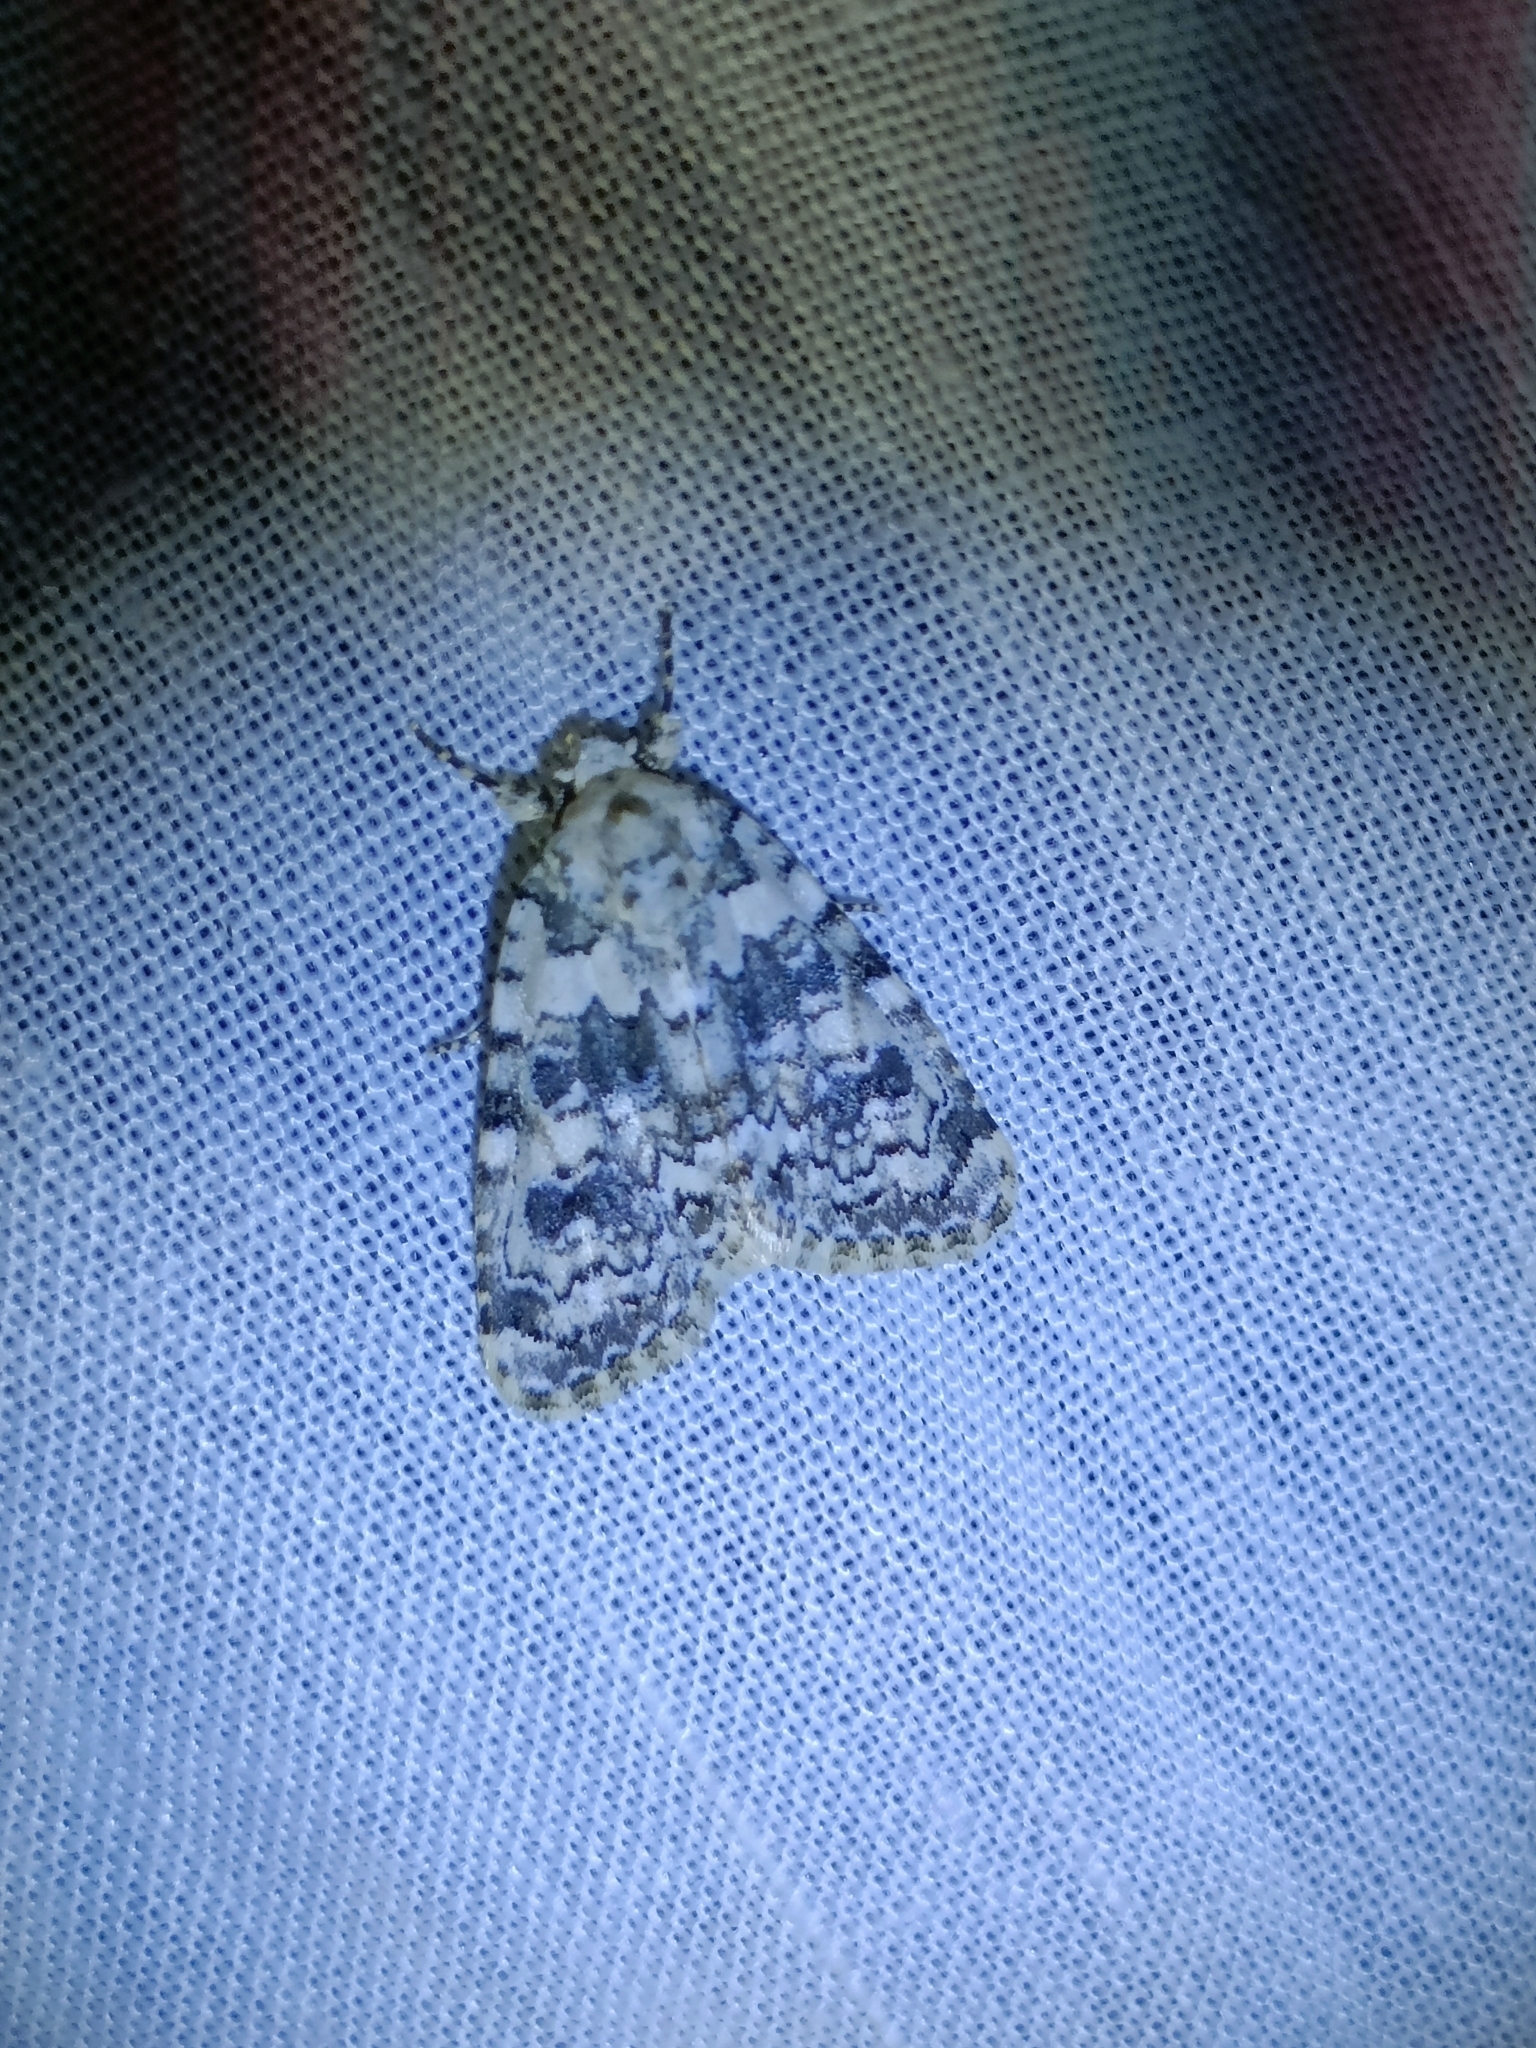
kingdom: Animalia
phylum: Arthropoda
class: Insecta
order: Lepidoptera
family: Noctuidae
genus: Bryophila
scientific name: Bryophila domestica
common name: Marbled beauty
